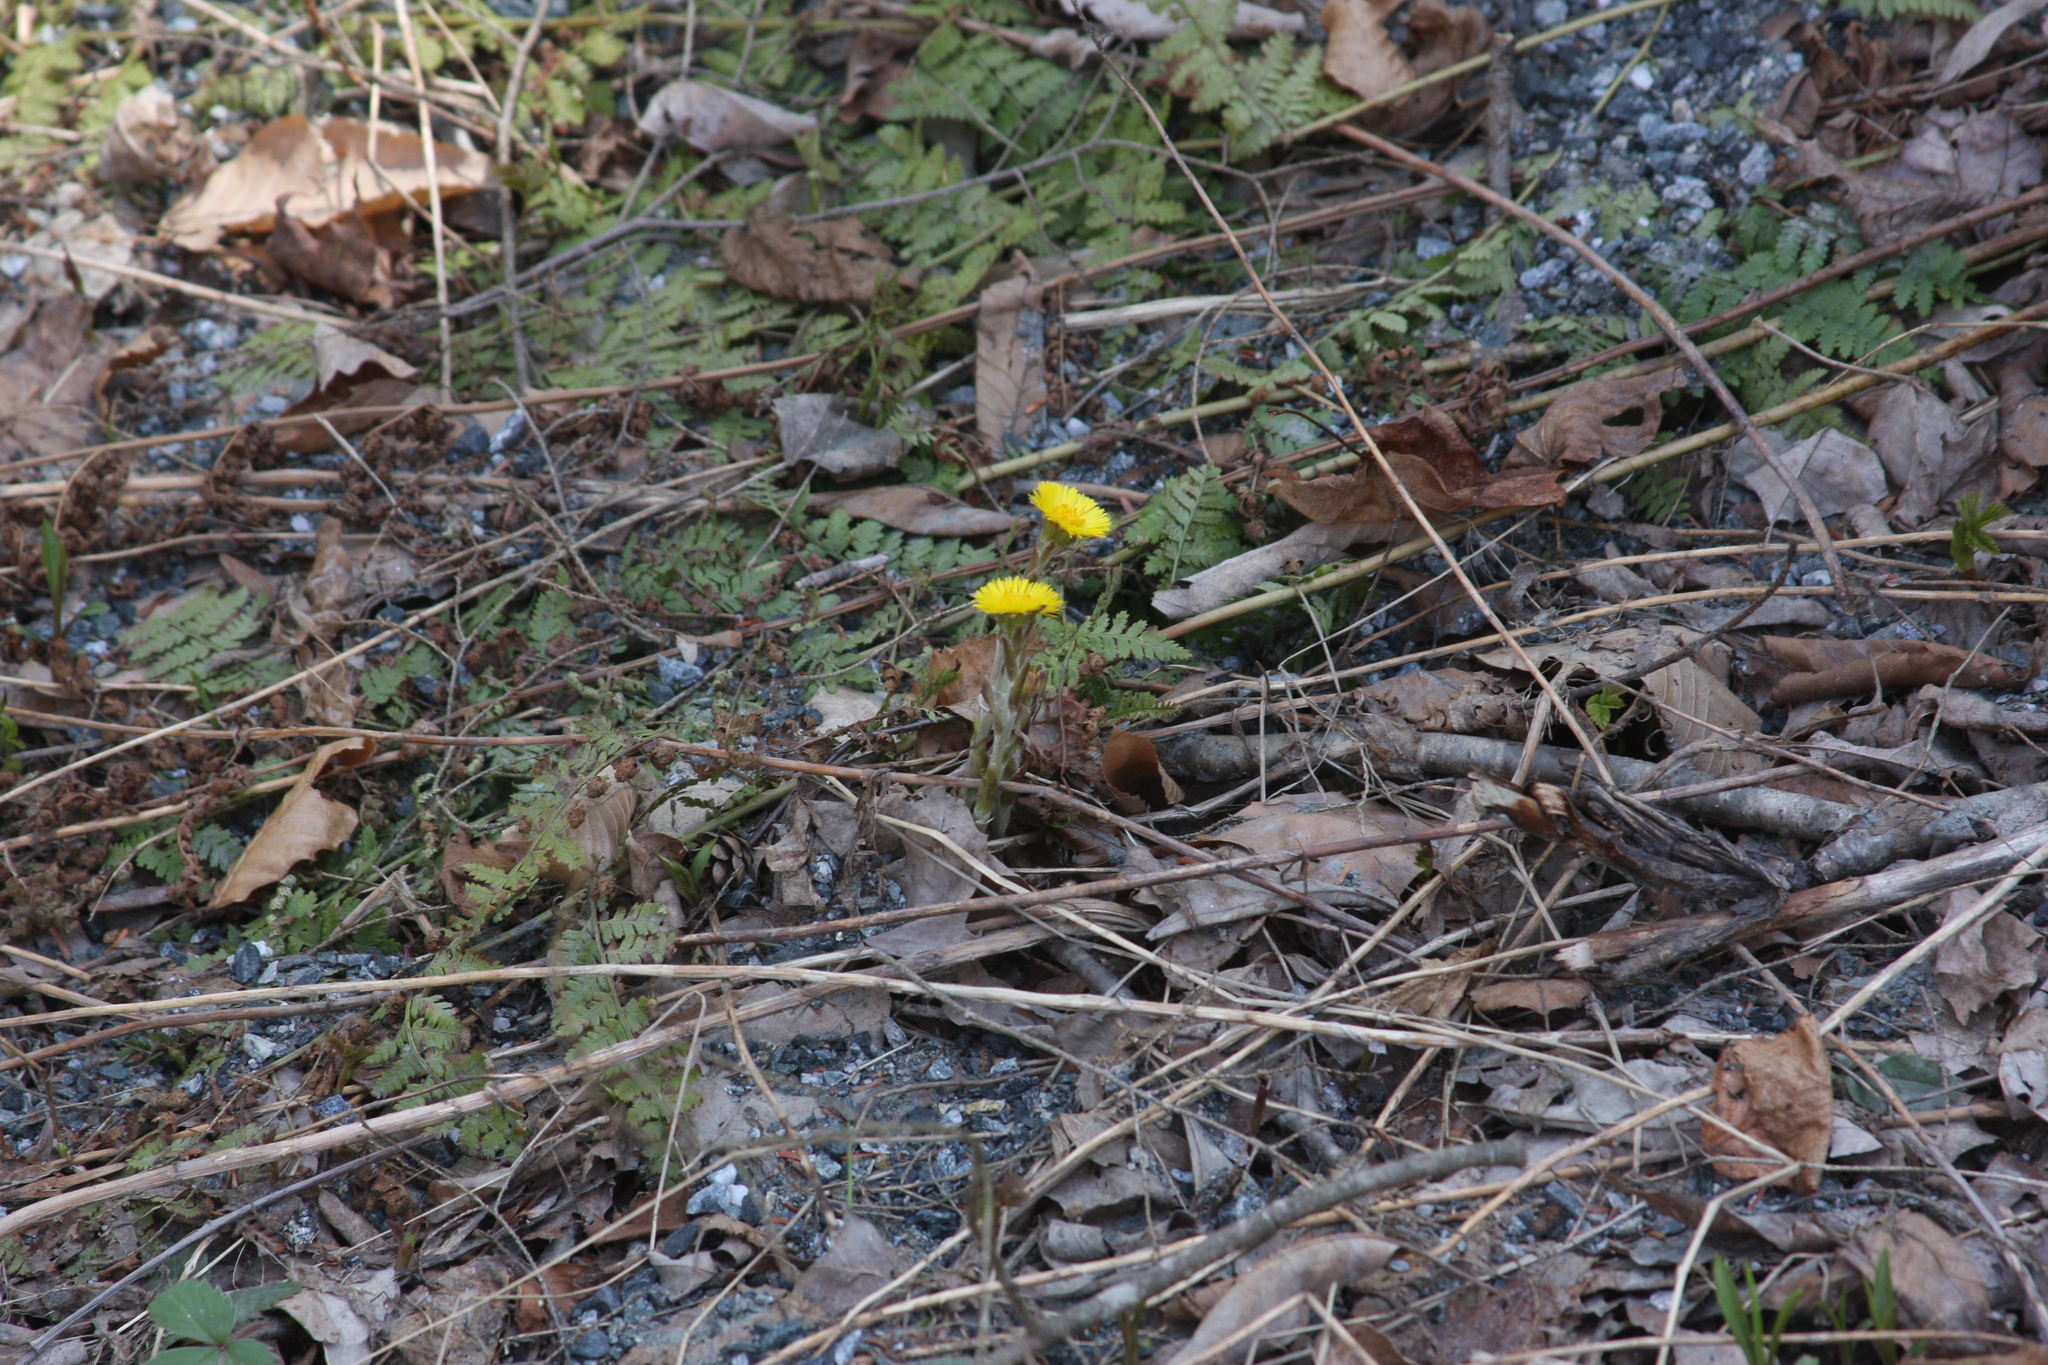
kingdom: Plantae
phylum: Tracheophyta
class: Magnoliopsida
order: Asterales
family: Asteraceae
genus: Tussilago
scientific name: Tussilago farfara
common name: Coltsfoot
